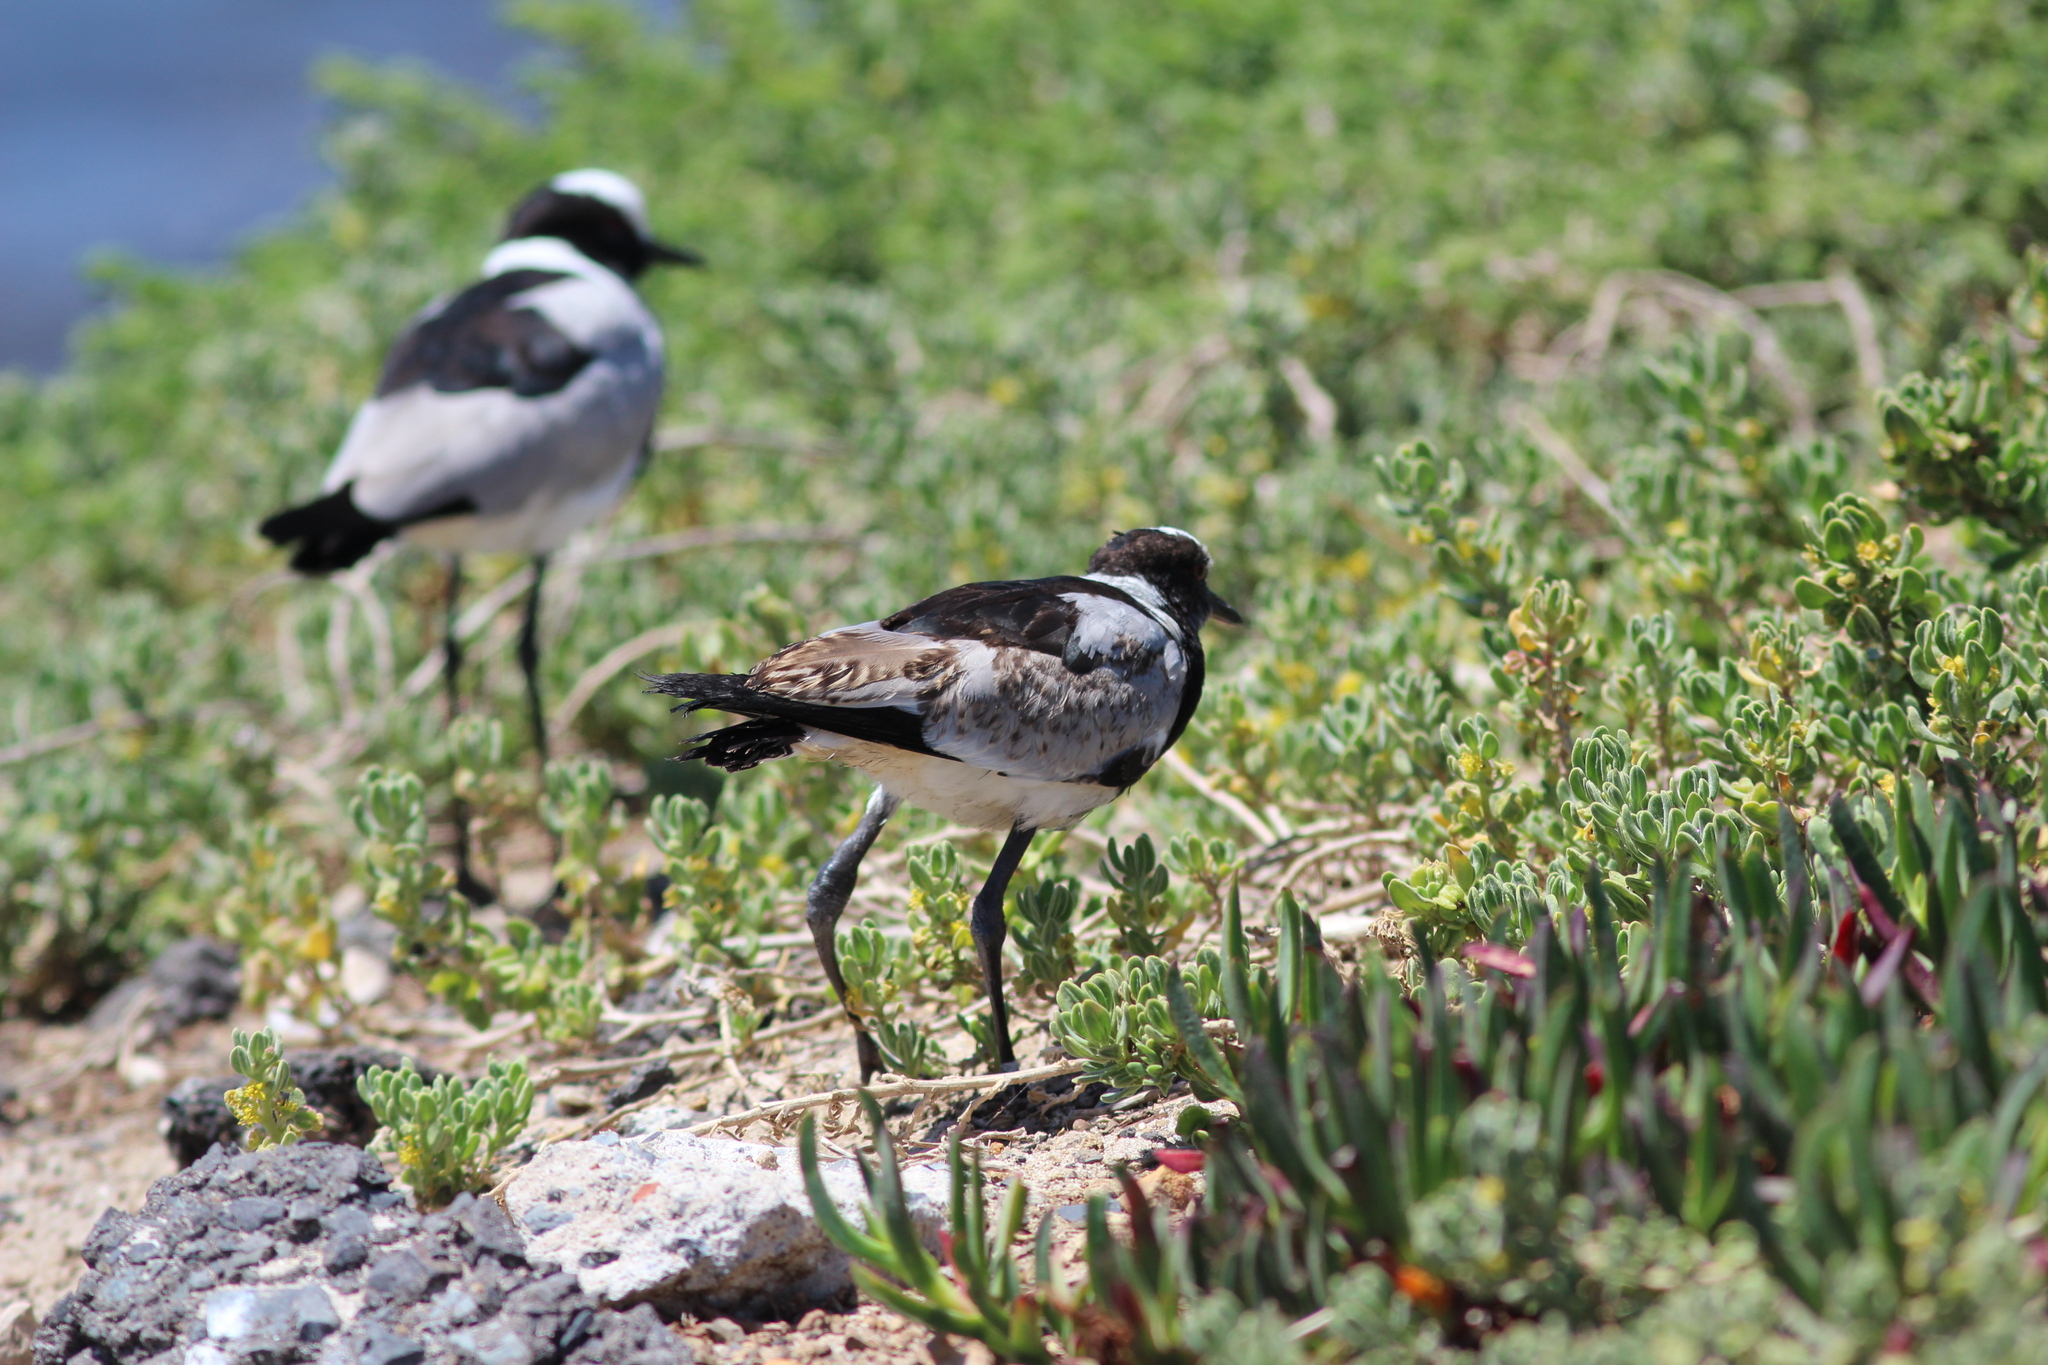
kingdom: Animalia
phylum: Chordata
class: Aves
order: Charadriiformes
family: Charadriidae
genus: Vanellus
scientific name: Vanellus armatus
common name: Blacksmith lapwing
